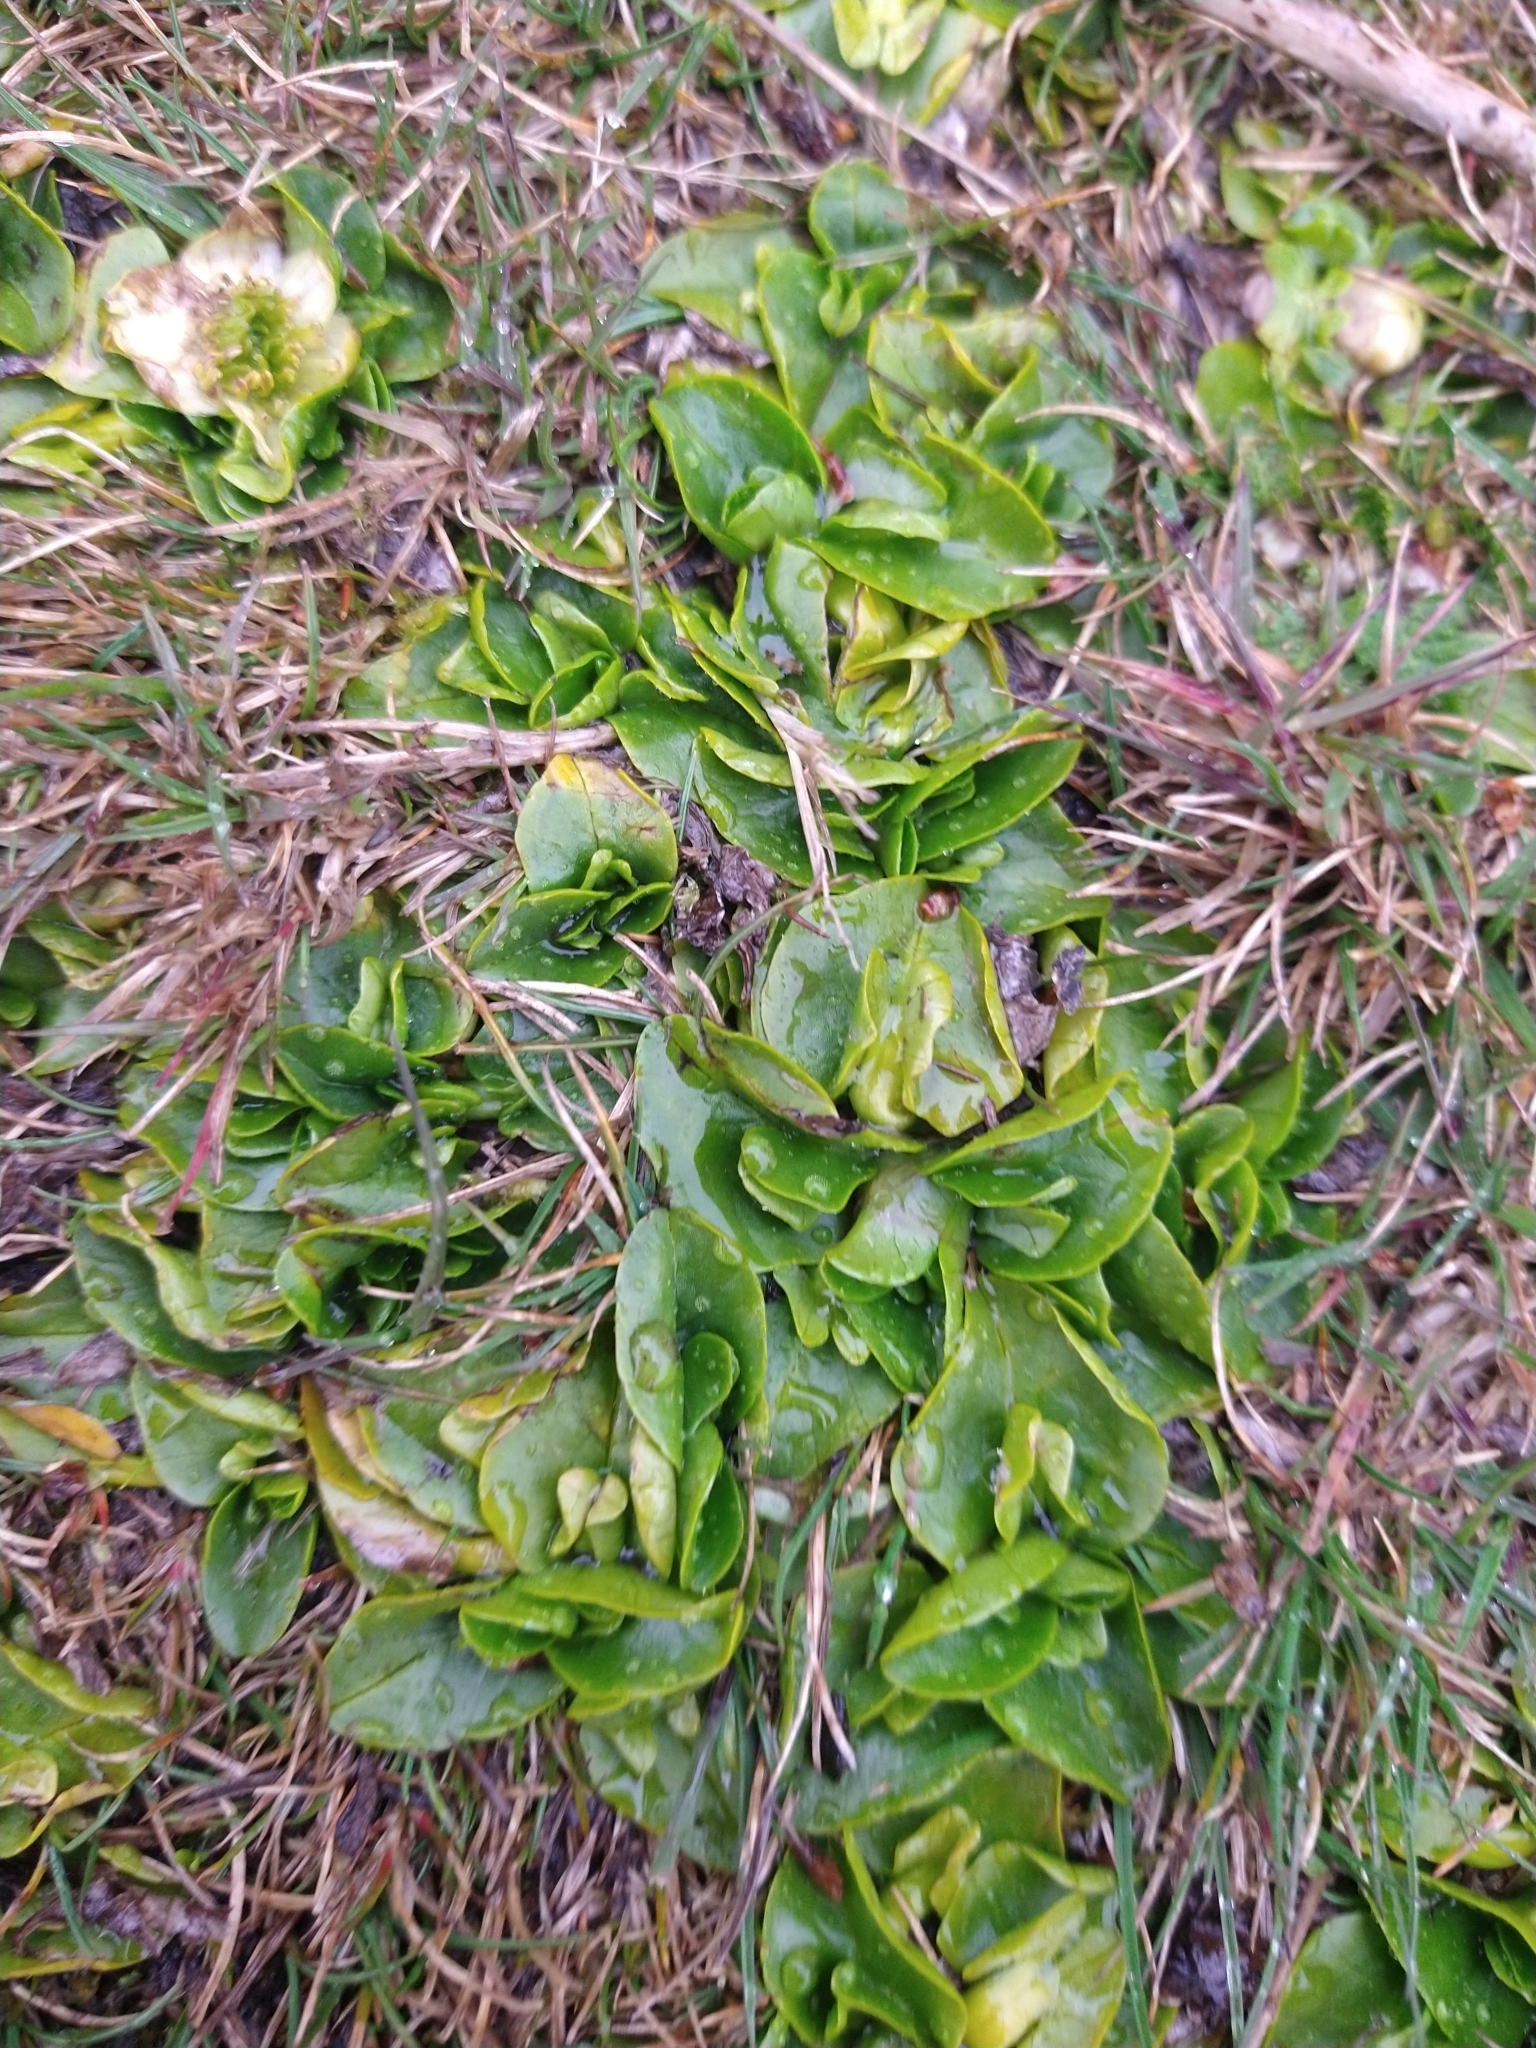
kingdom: Plantae
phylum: Tracheophyta
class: Magnoliopsida
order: Ranunculales
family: Ranunculaceae
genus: Caltha
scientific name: Caltha sagittata
